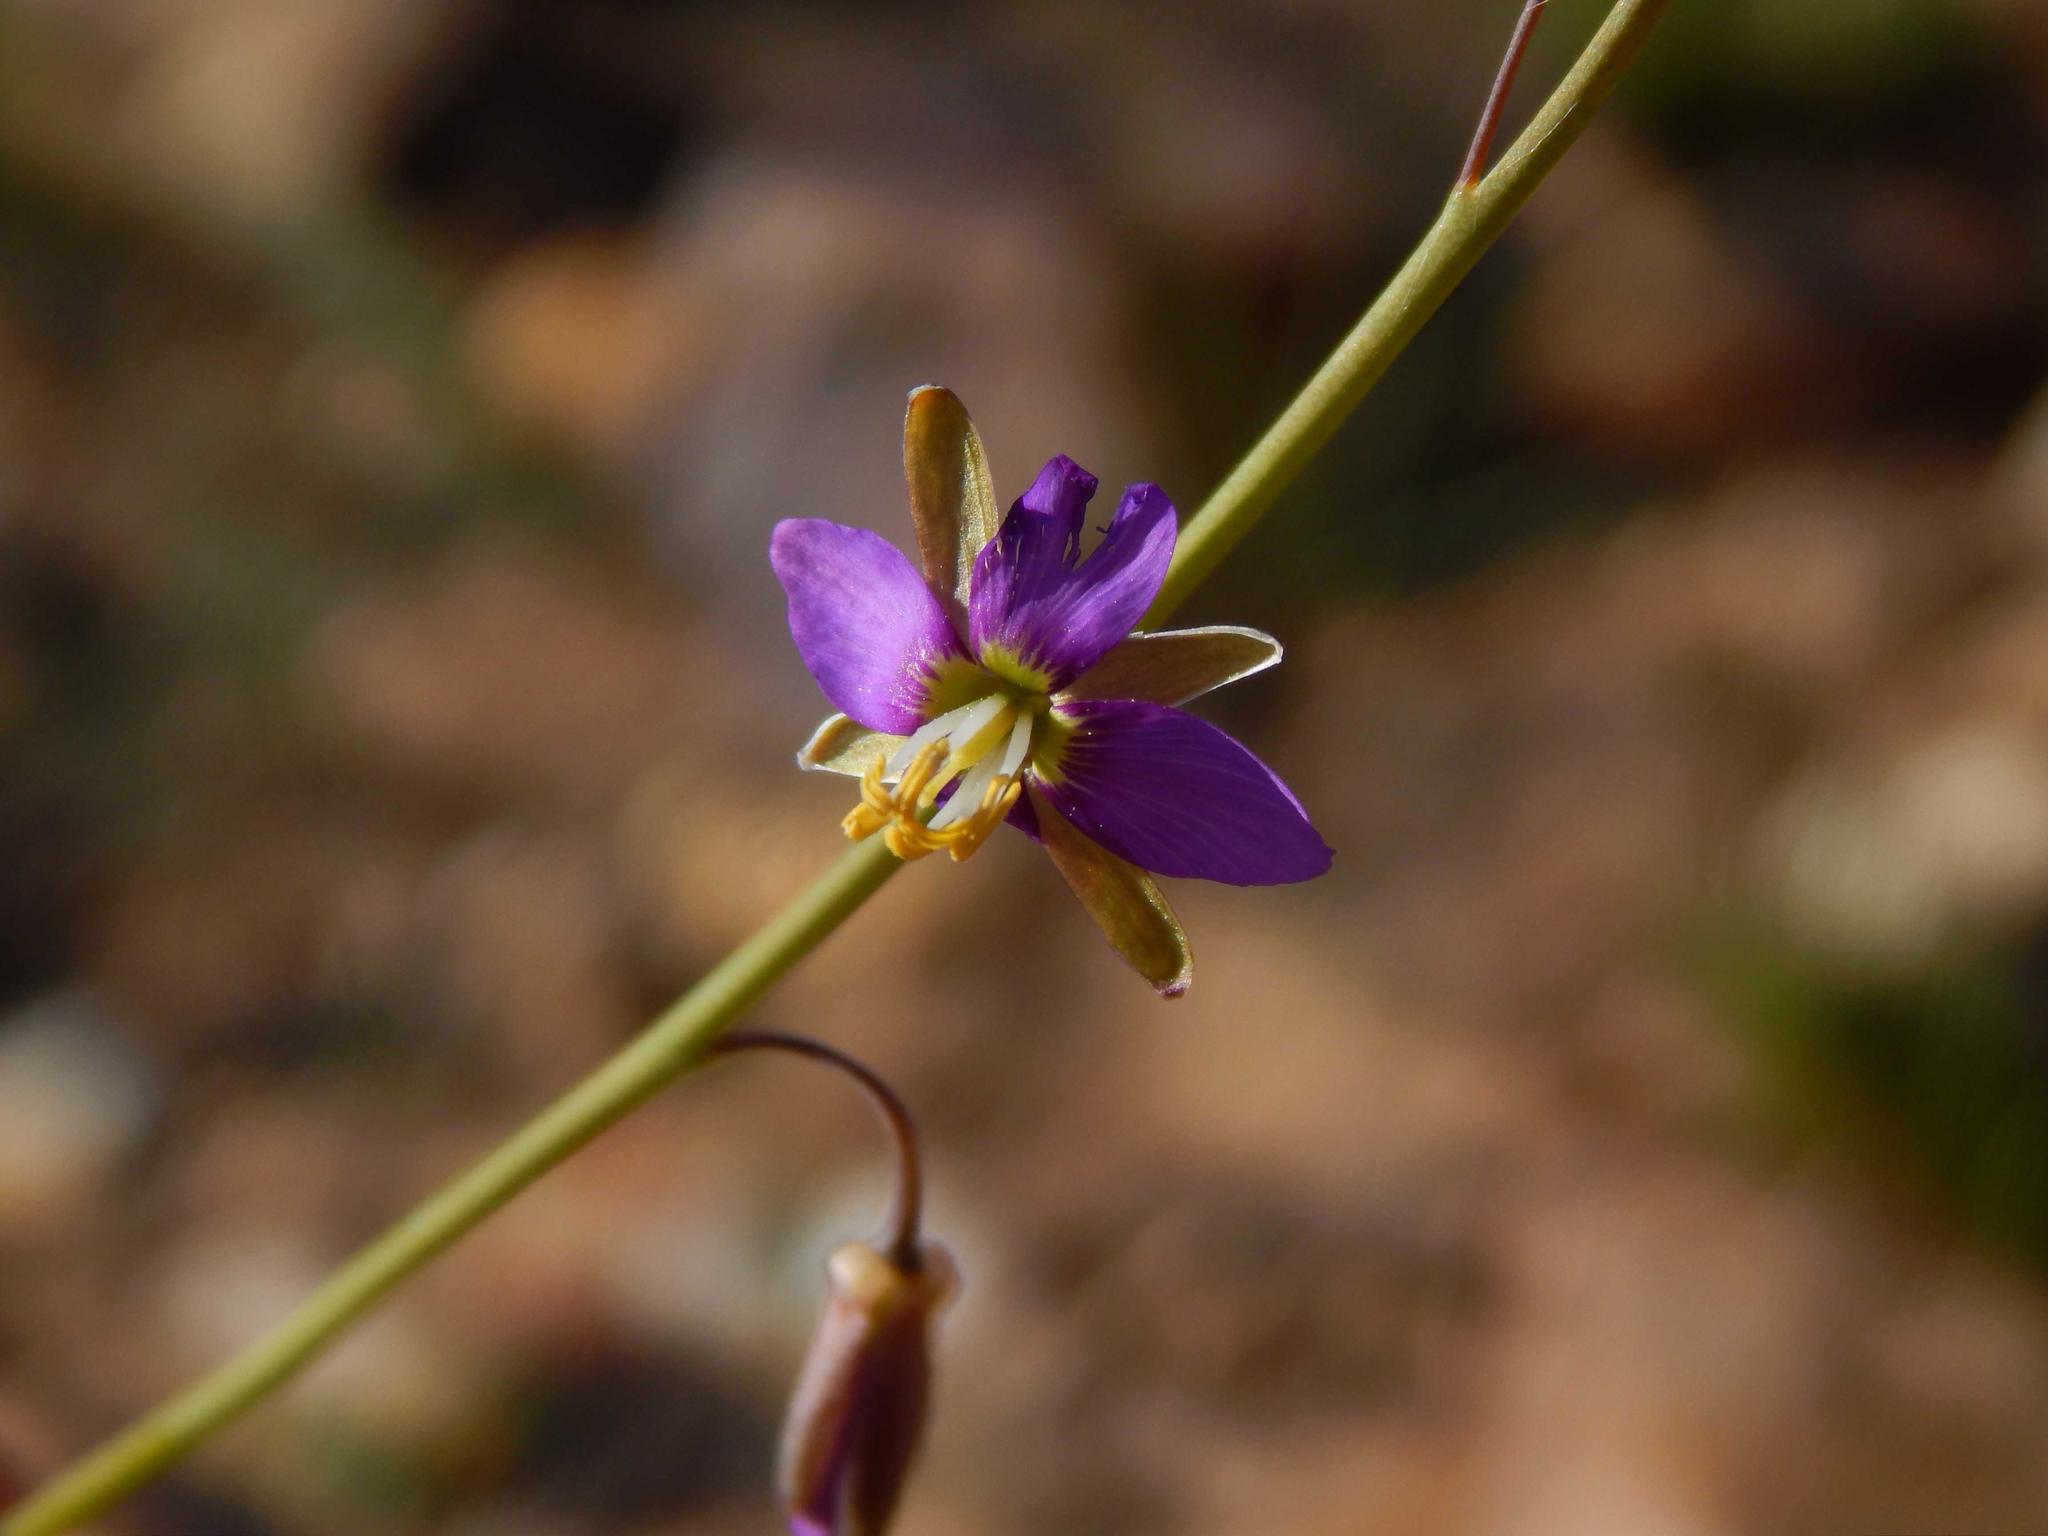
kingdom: Plantae
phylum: Tracheophyta
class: Magnoliopsida
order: Brassicales
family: Brassicaceae
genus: Heliophila
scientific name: Heliophila cornuta
